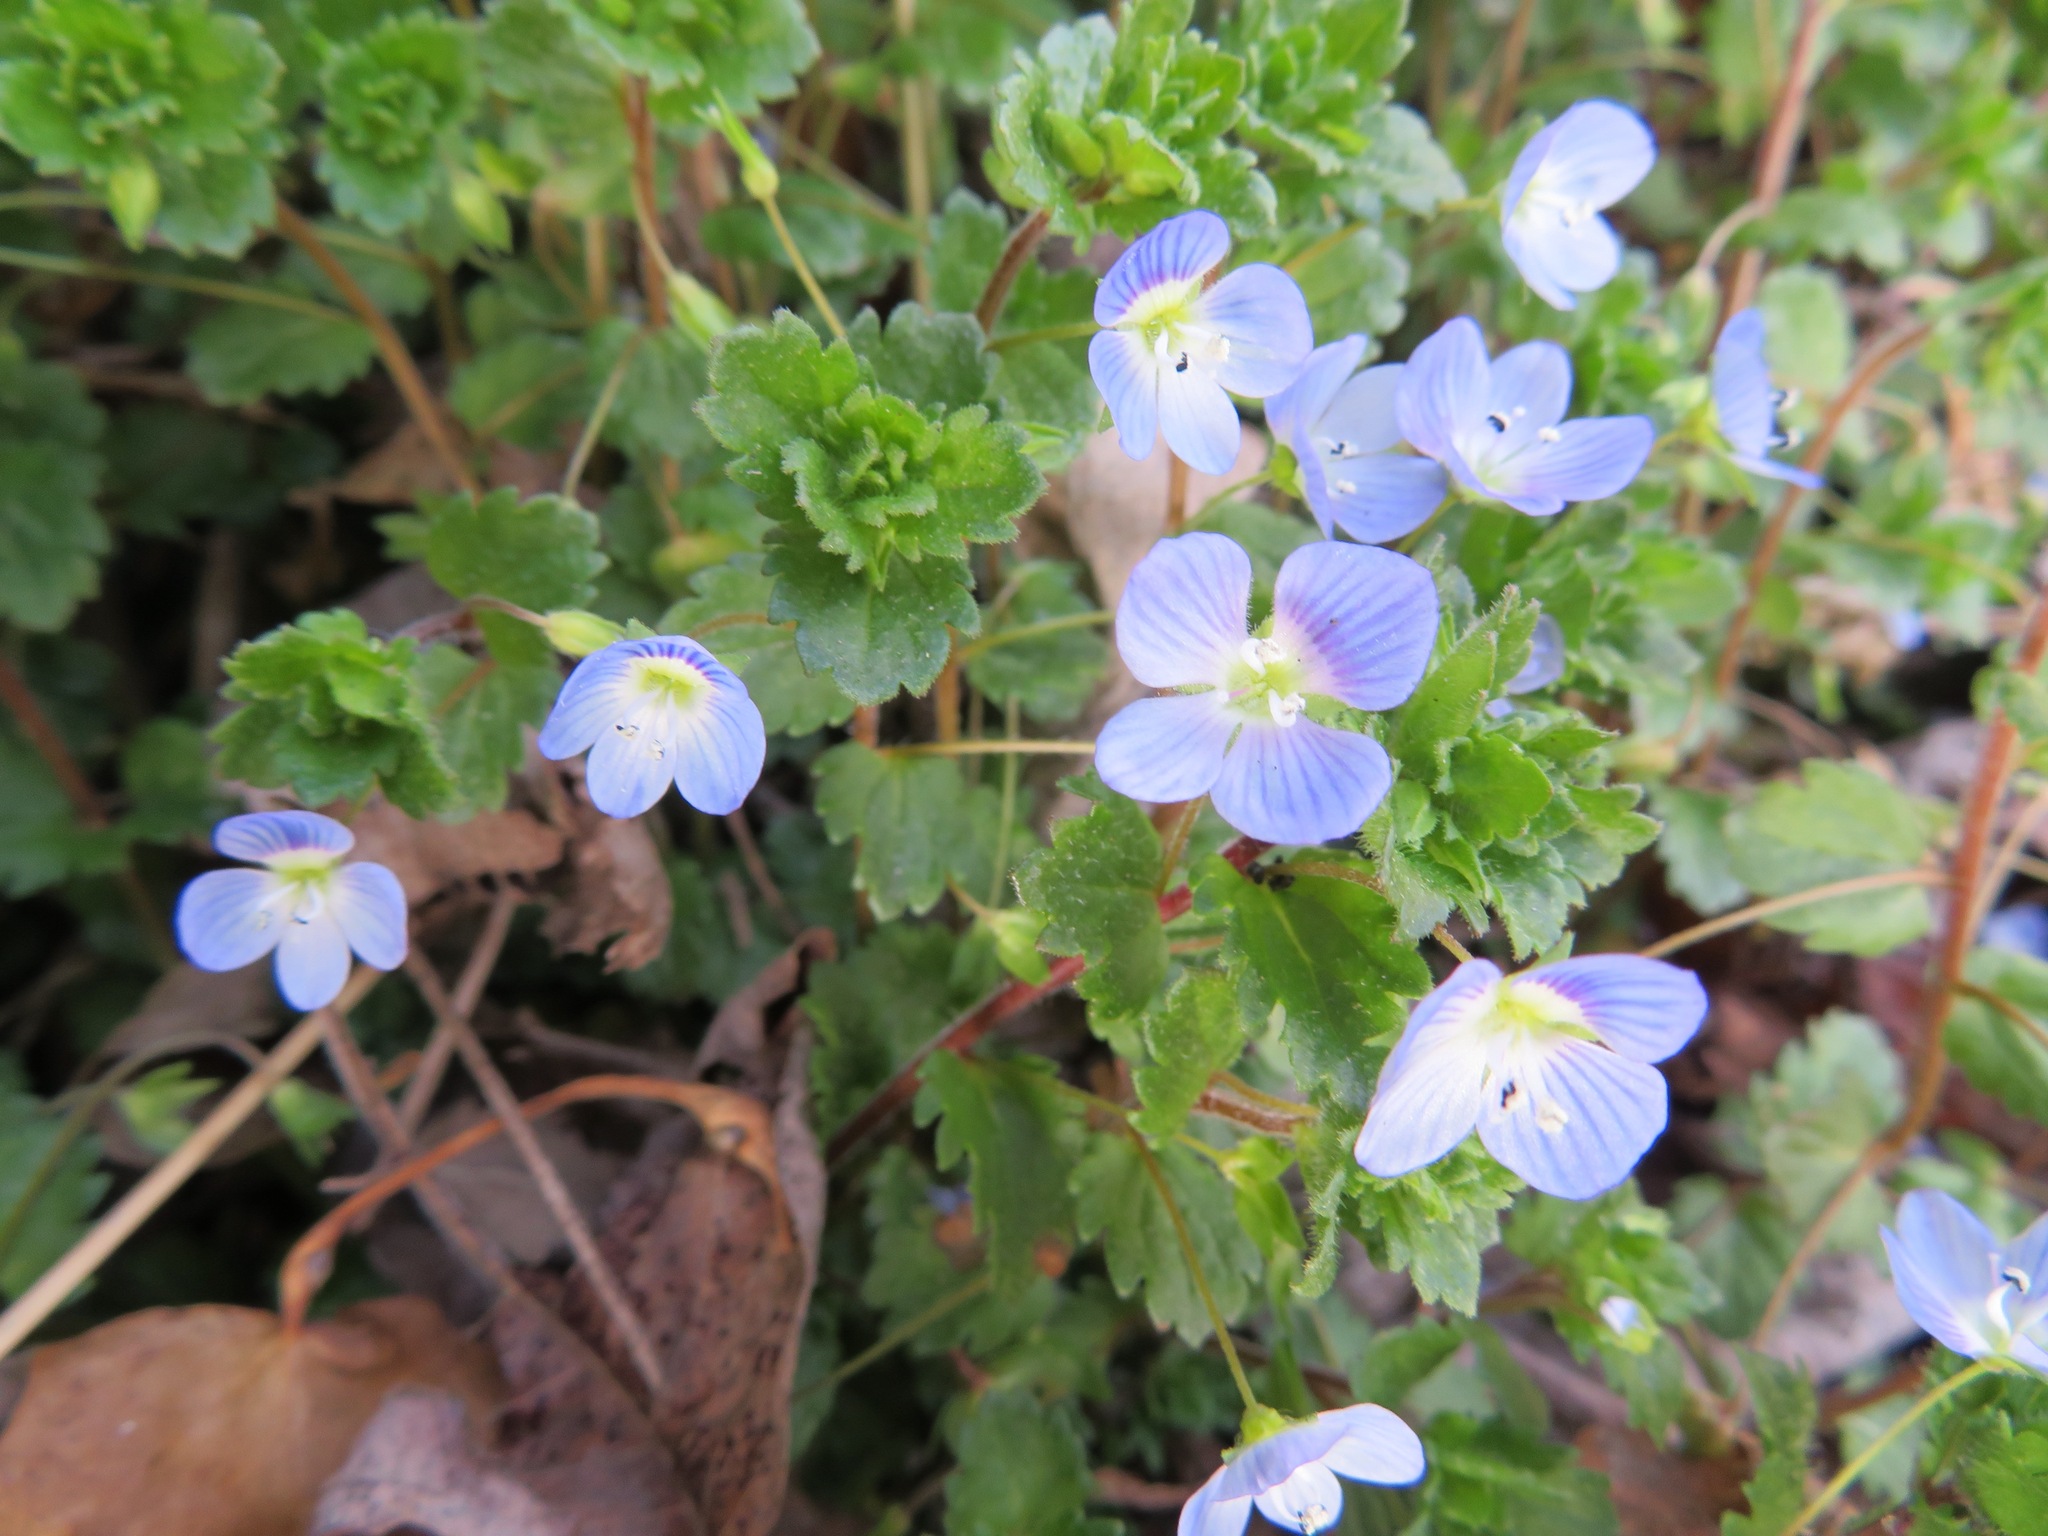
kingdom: Plantae
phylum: Tracheophyta
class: Magnoliopsida
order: Lamiales
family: Plantaginaceae
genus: Veronica
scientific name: Veronica persica
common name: Common field-speedwell
